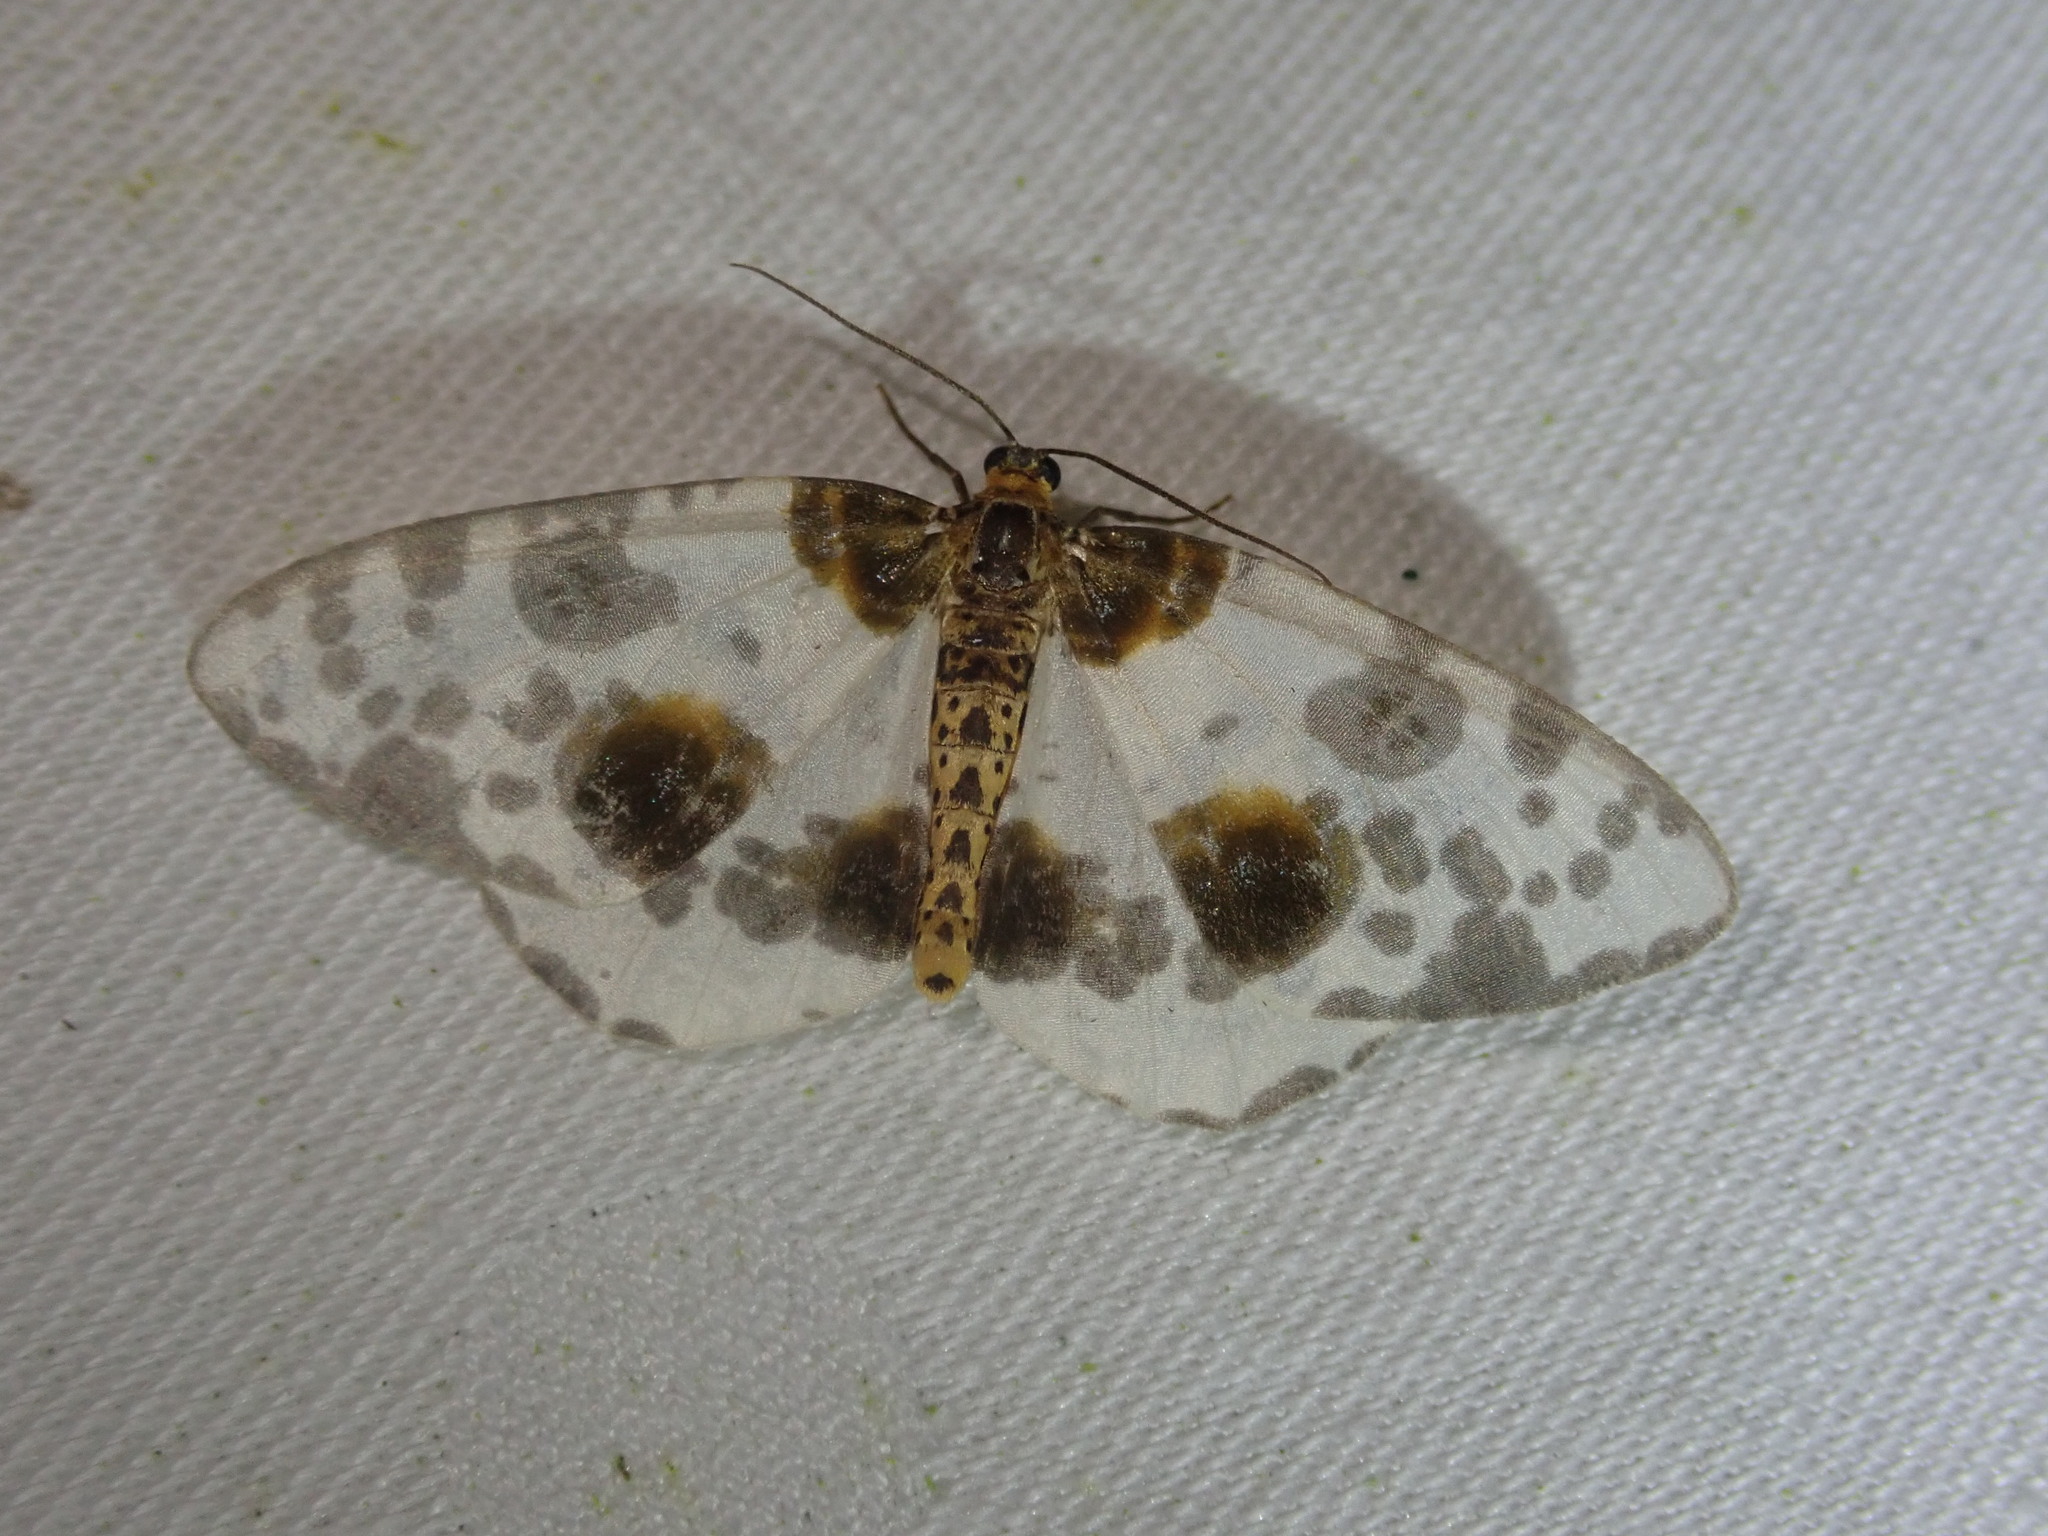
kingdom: Animalia
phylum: Arthropoda
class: Insecta
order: Lepidoptera
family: Geometridae
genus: Abraxas
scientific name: Abraxas sylvata
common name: Clouded magpie
